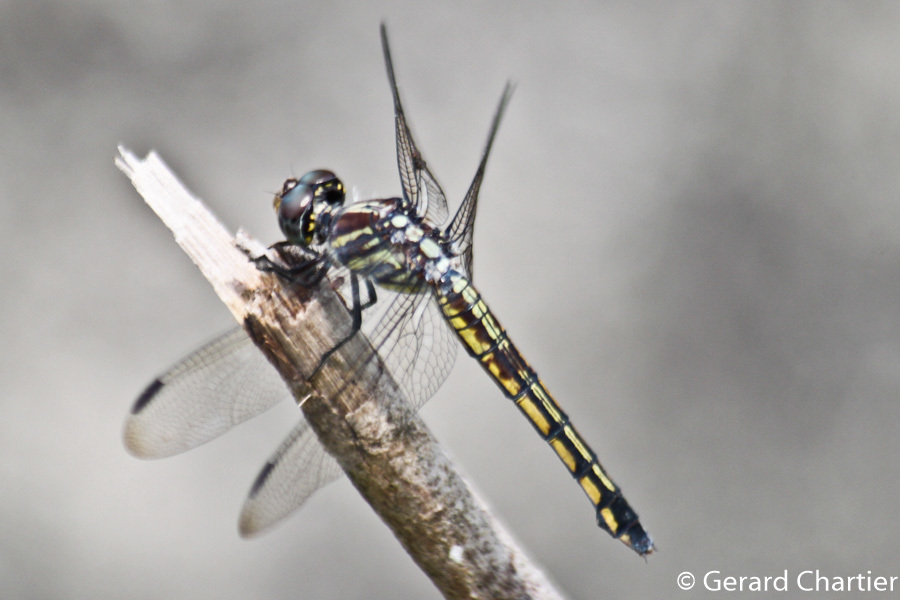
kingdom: Animalia
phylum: Arthropoda
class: Insecta
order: Odonata
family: Libellulidae
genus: Potamarcha
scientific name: Potamarcha congener
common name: Blue chaser
